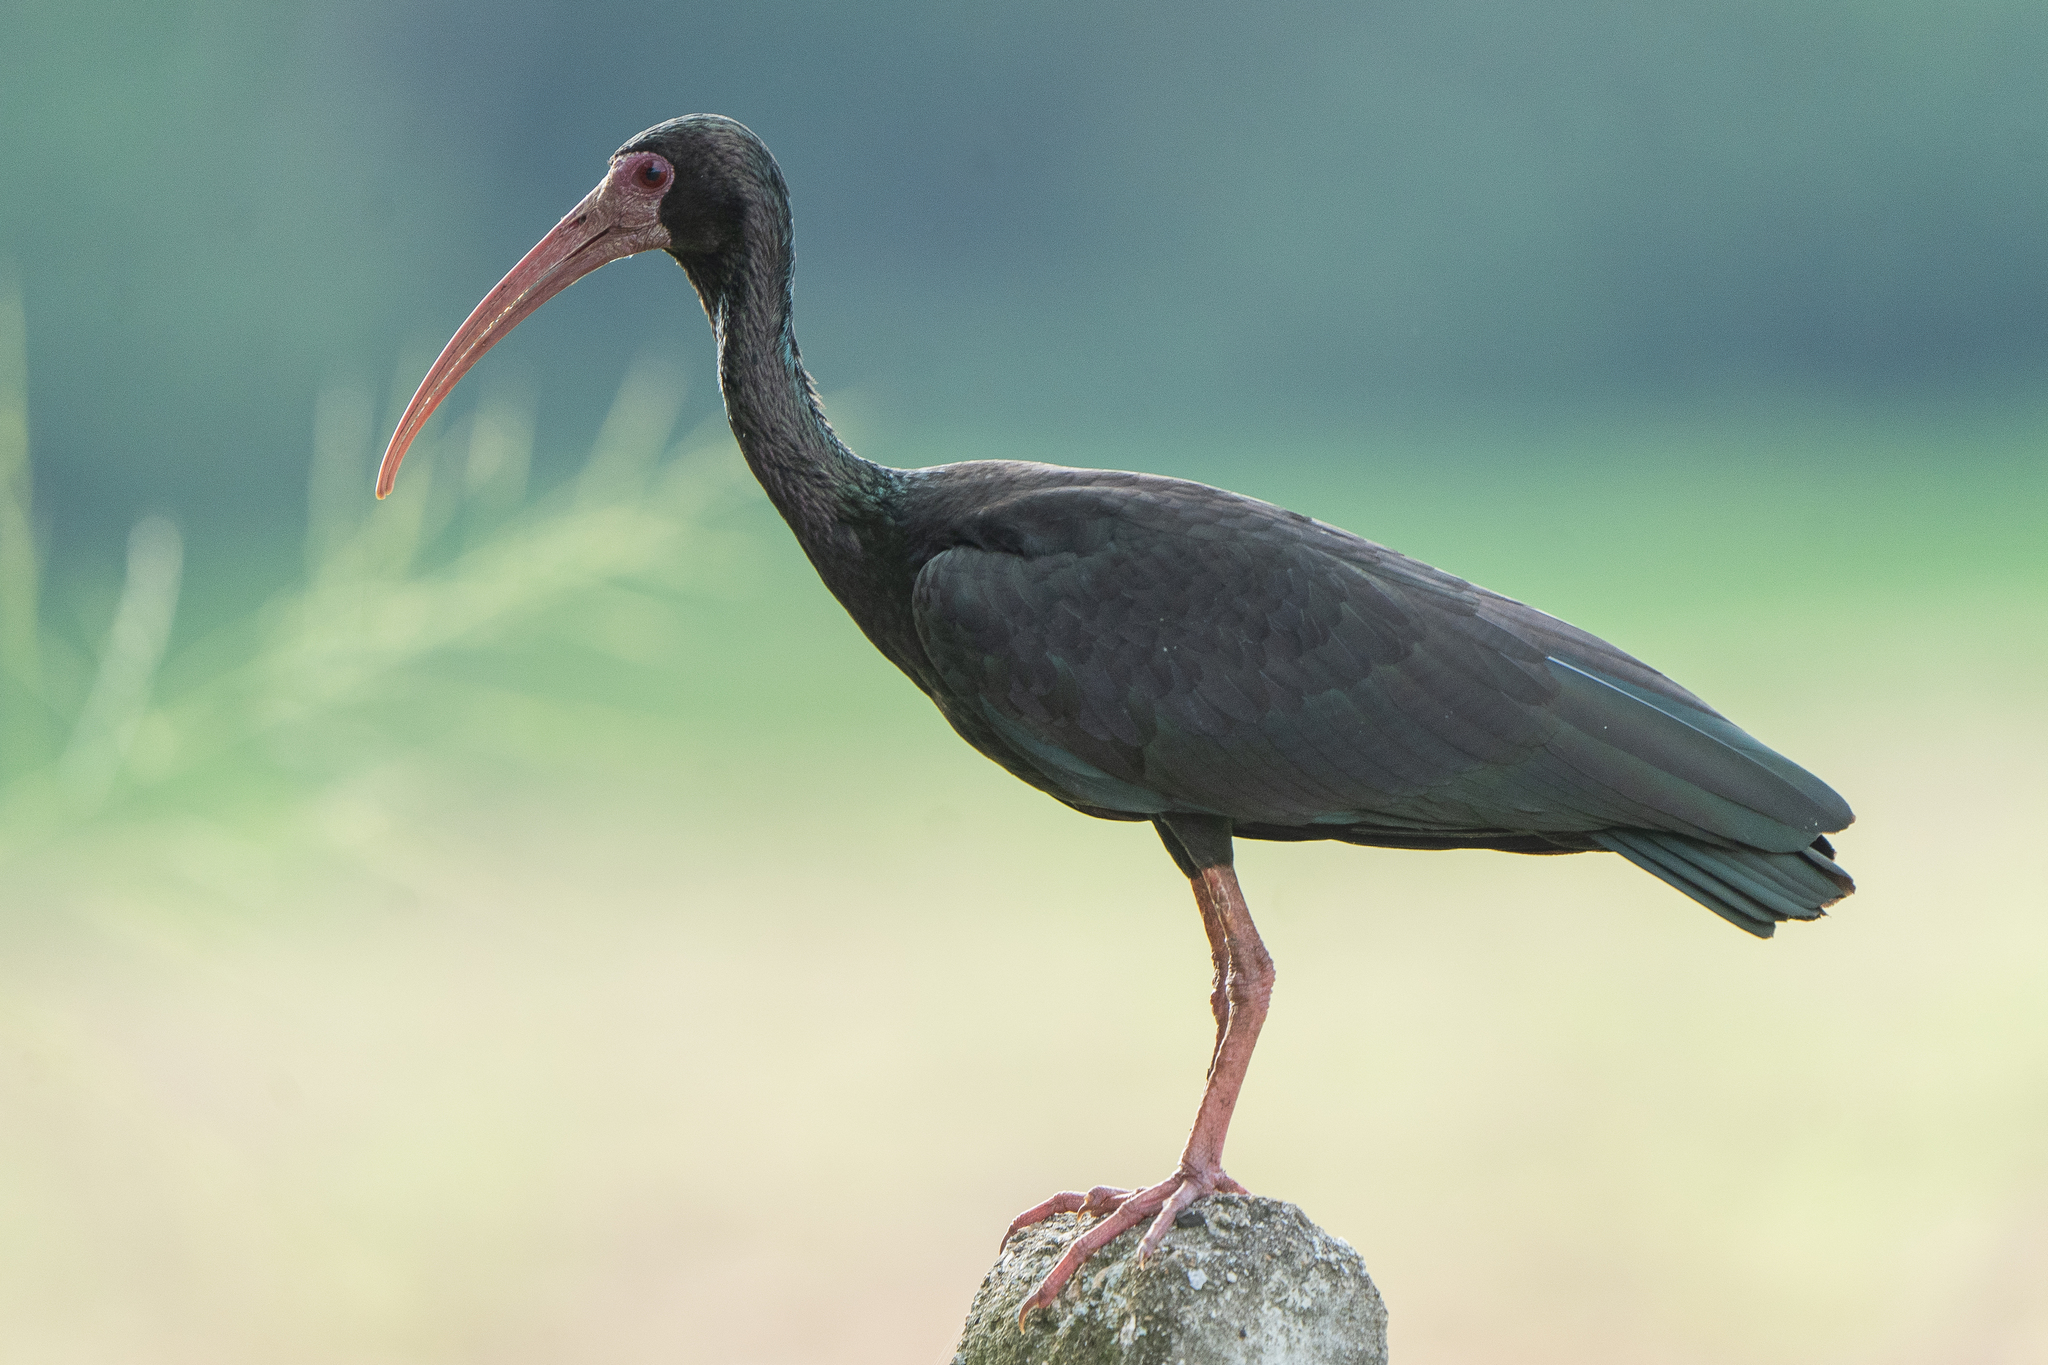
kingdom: Animalia
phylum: Chordata
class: Aves
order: Pelecaniformes
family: Threskiornithidae
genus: Phimosus
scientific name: Phimosus infuscatus
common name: Bare-faced ibis
